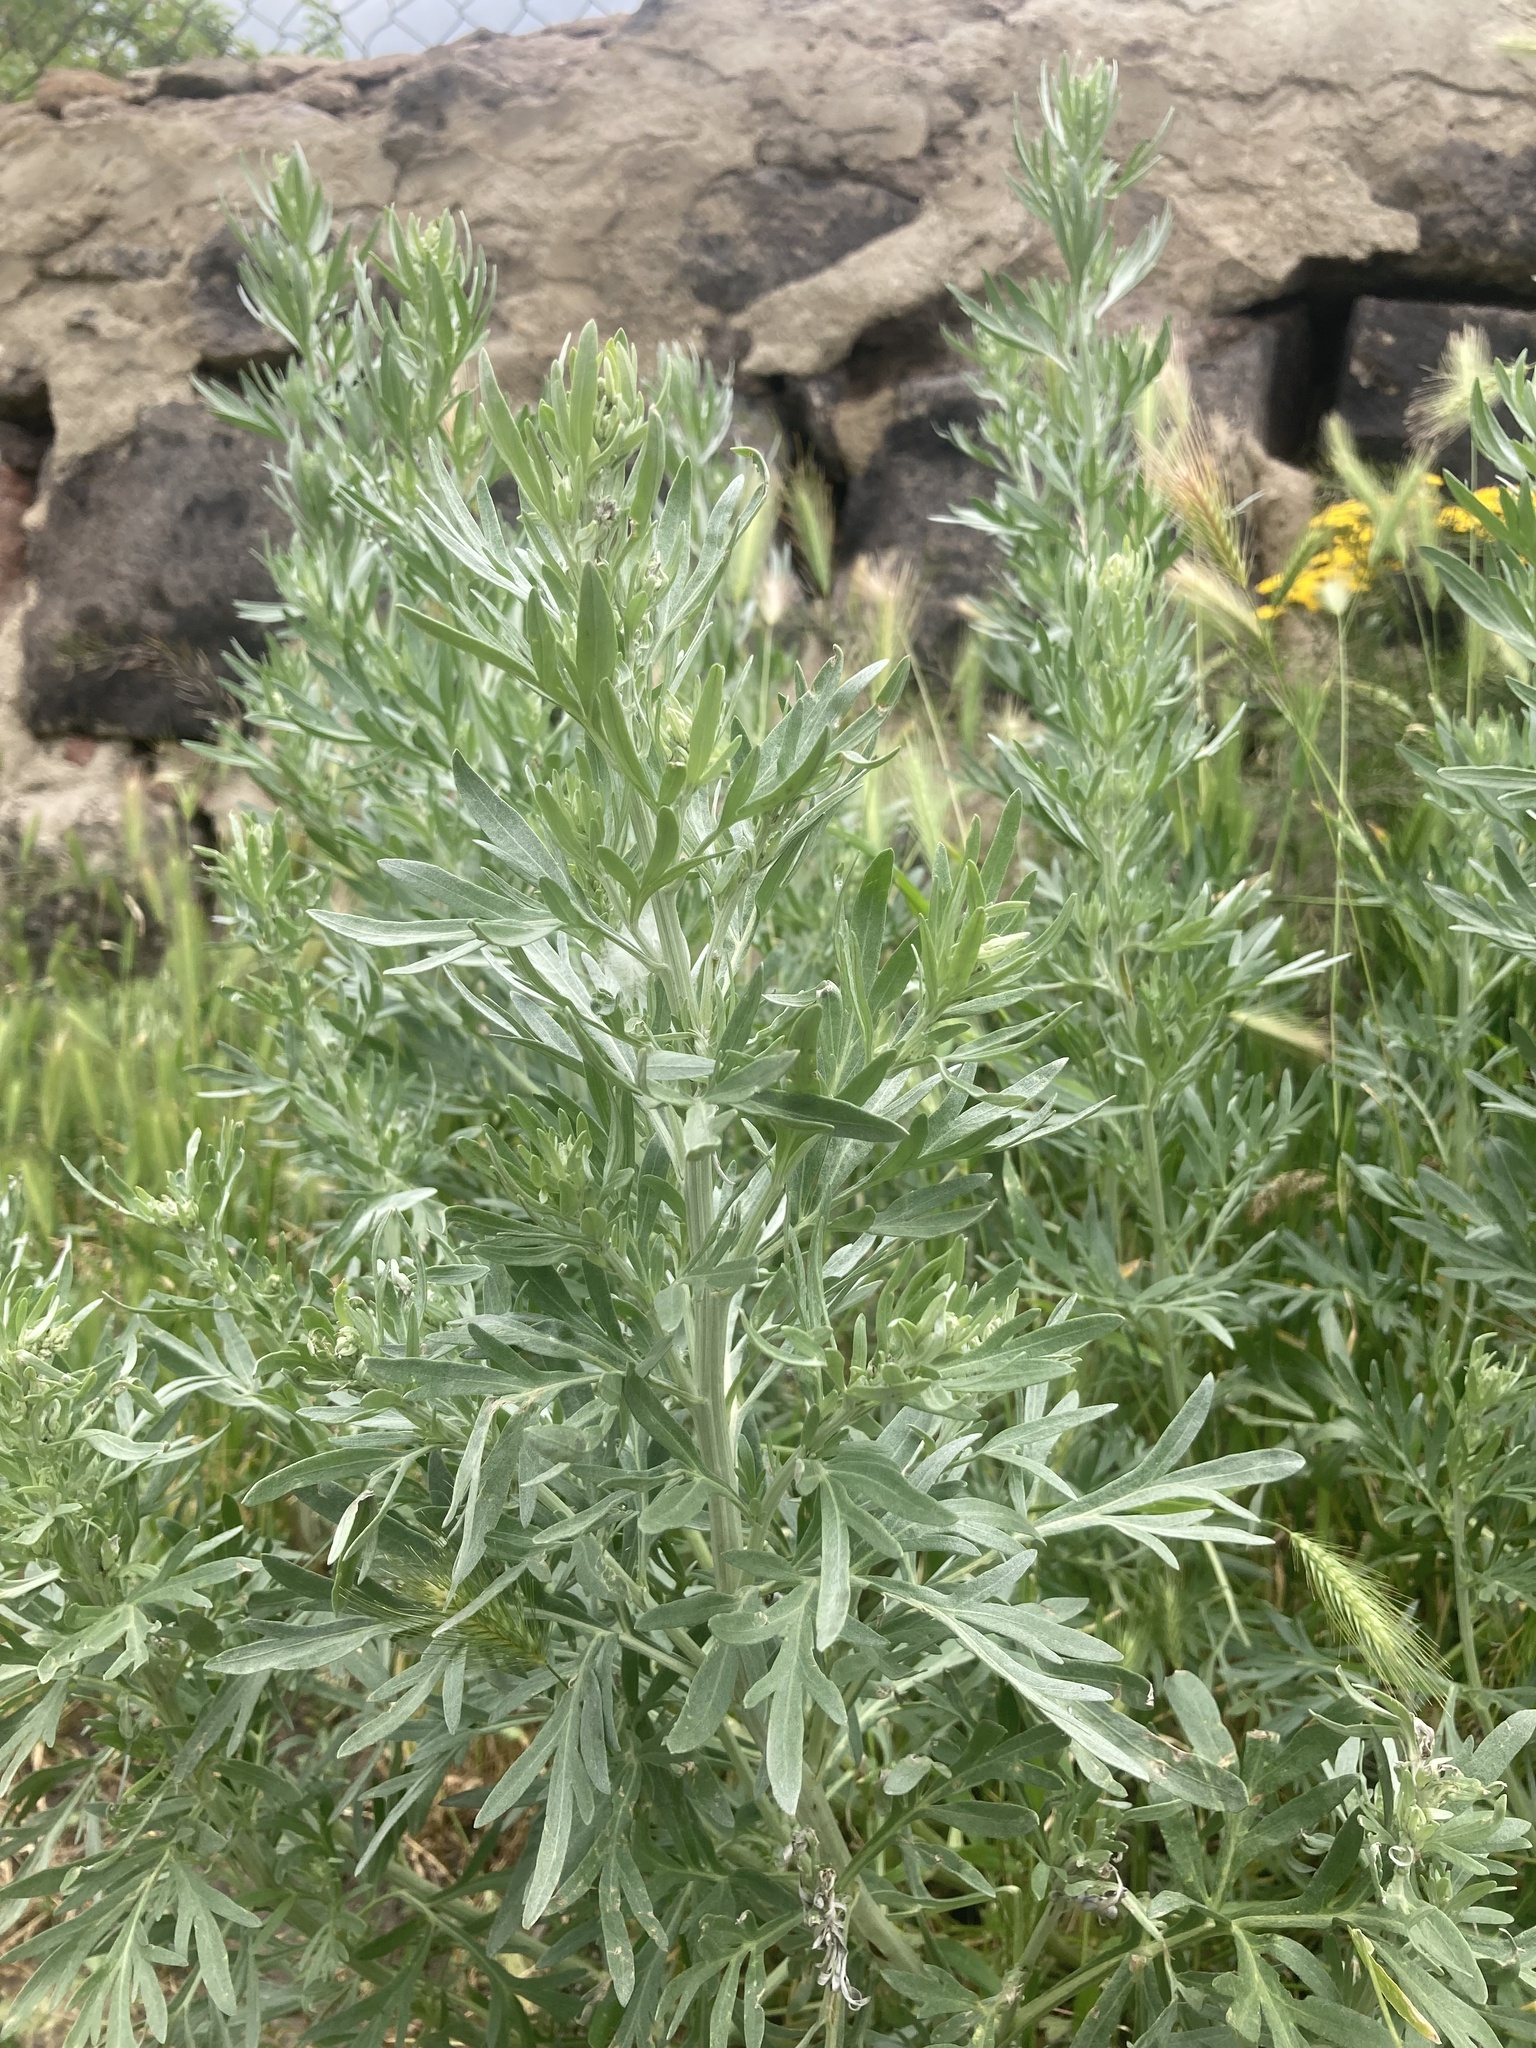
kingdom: Plantae
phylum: Tracheophyta
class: Magnoliopsida
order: Asterales
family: Asteraceae
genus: Artemisia
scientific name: Artemisia absinthium
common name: Wormwood
